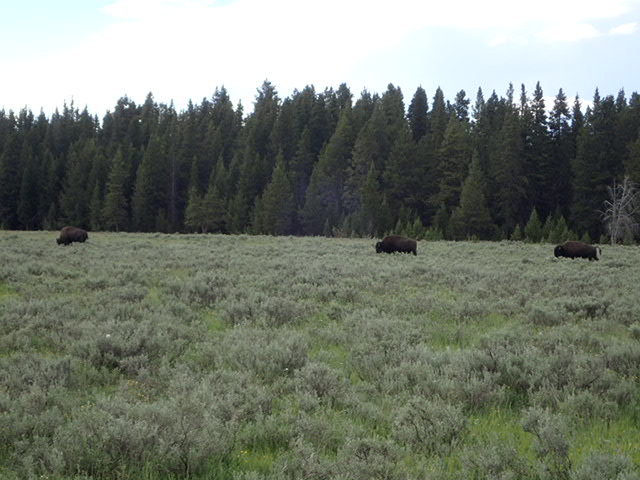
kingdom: Animalia
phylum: Chordata
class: Mammalia
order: Artiodactyla
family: Bovidae
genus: Bison
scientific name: Bison bison
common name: American bison
